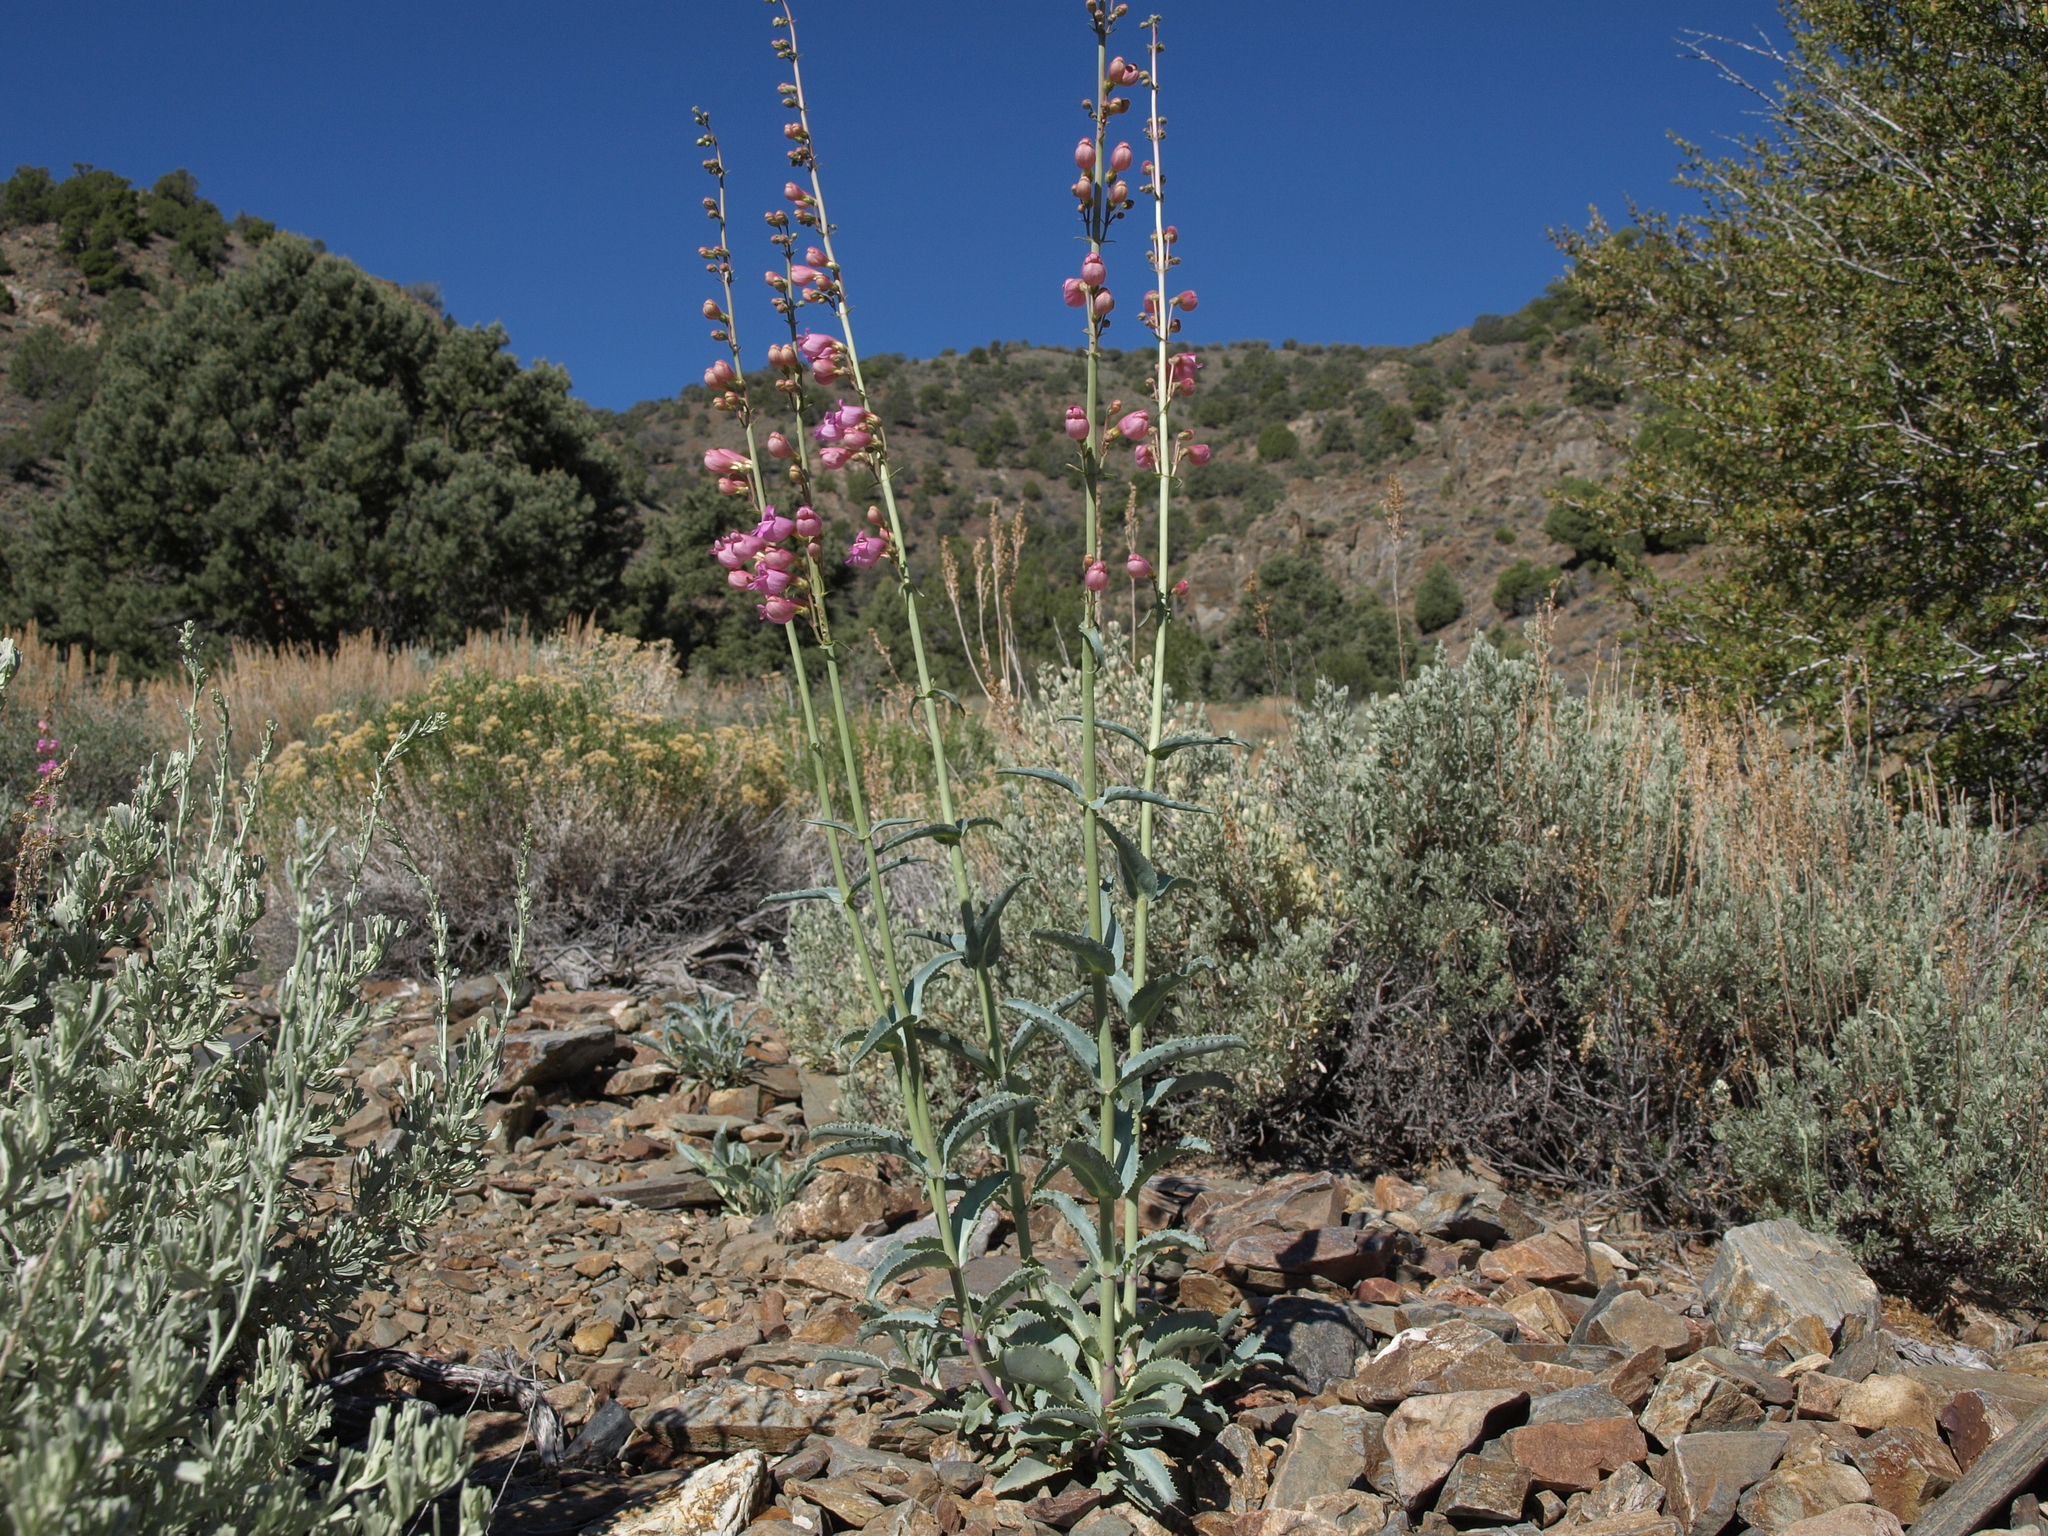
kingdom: Plantae
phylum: Tracheophyta
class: Magnoliopsida
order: Lamiales
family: Plantaginaceae
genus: Penstemon
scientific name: Penstemon floridus
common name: Panamint penstemon
